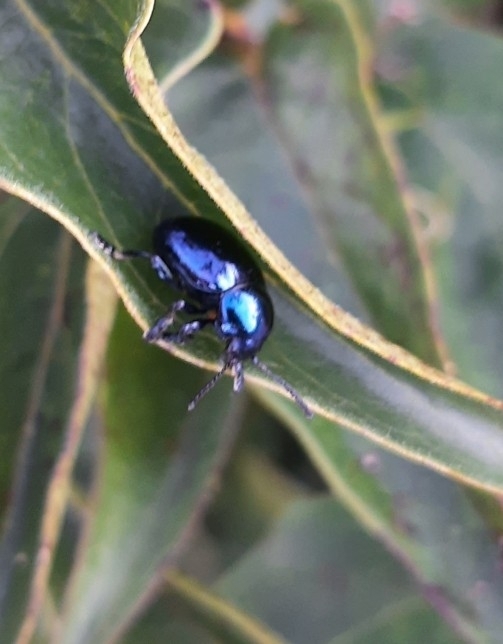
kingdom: Animalia
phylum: Arthropoda
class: Insecta
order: Coleoptera
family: Chrysomelidae
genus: Chrysochus
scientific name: Chrysochus asclepiadeus
